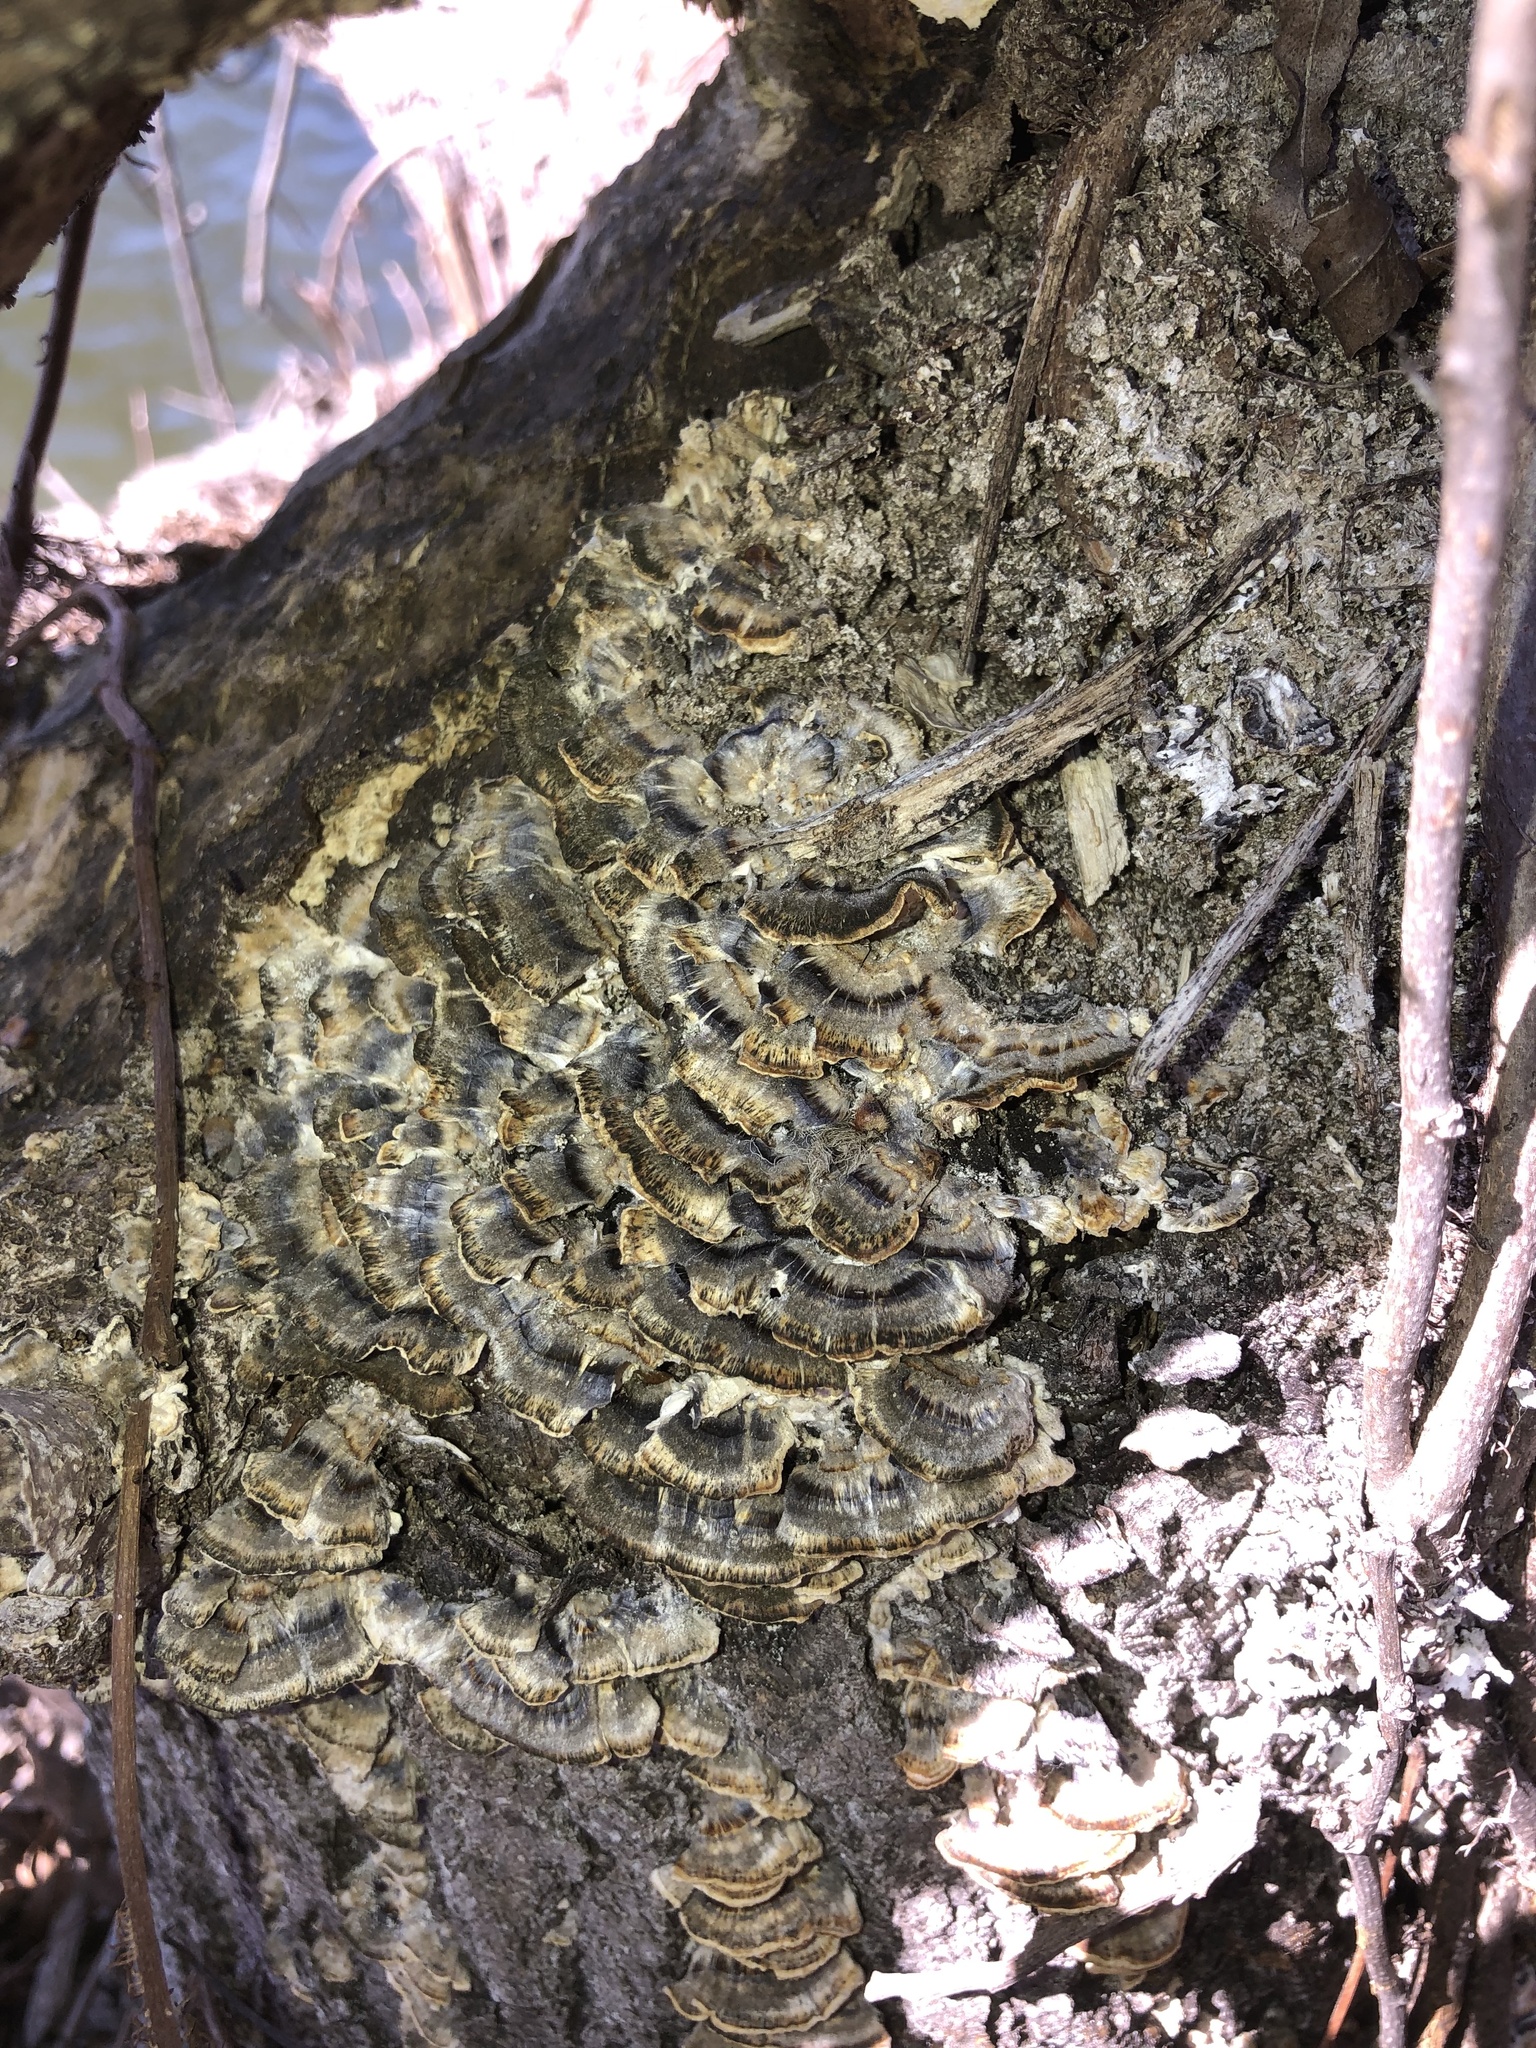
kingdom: Fungi
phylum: Basidiomycota
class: Agaricomycetes
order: Polyporales
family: Polyporaceae
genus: Trametes
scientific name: Trametes versicolor
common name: Turkeytail
